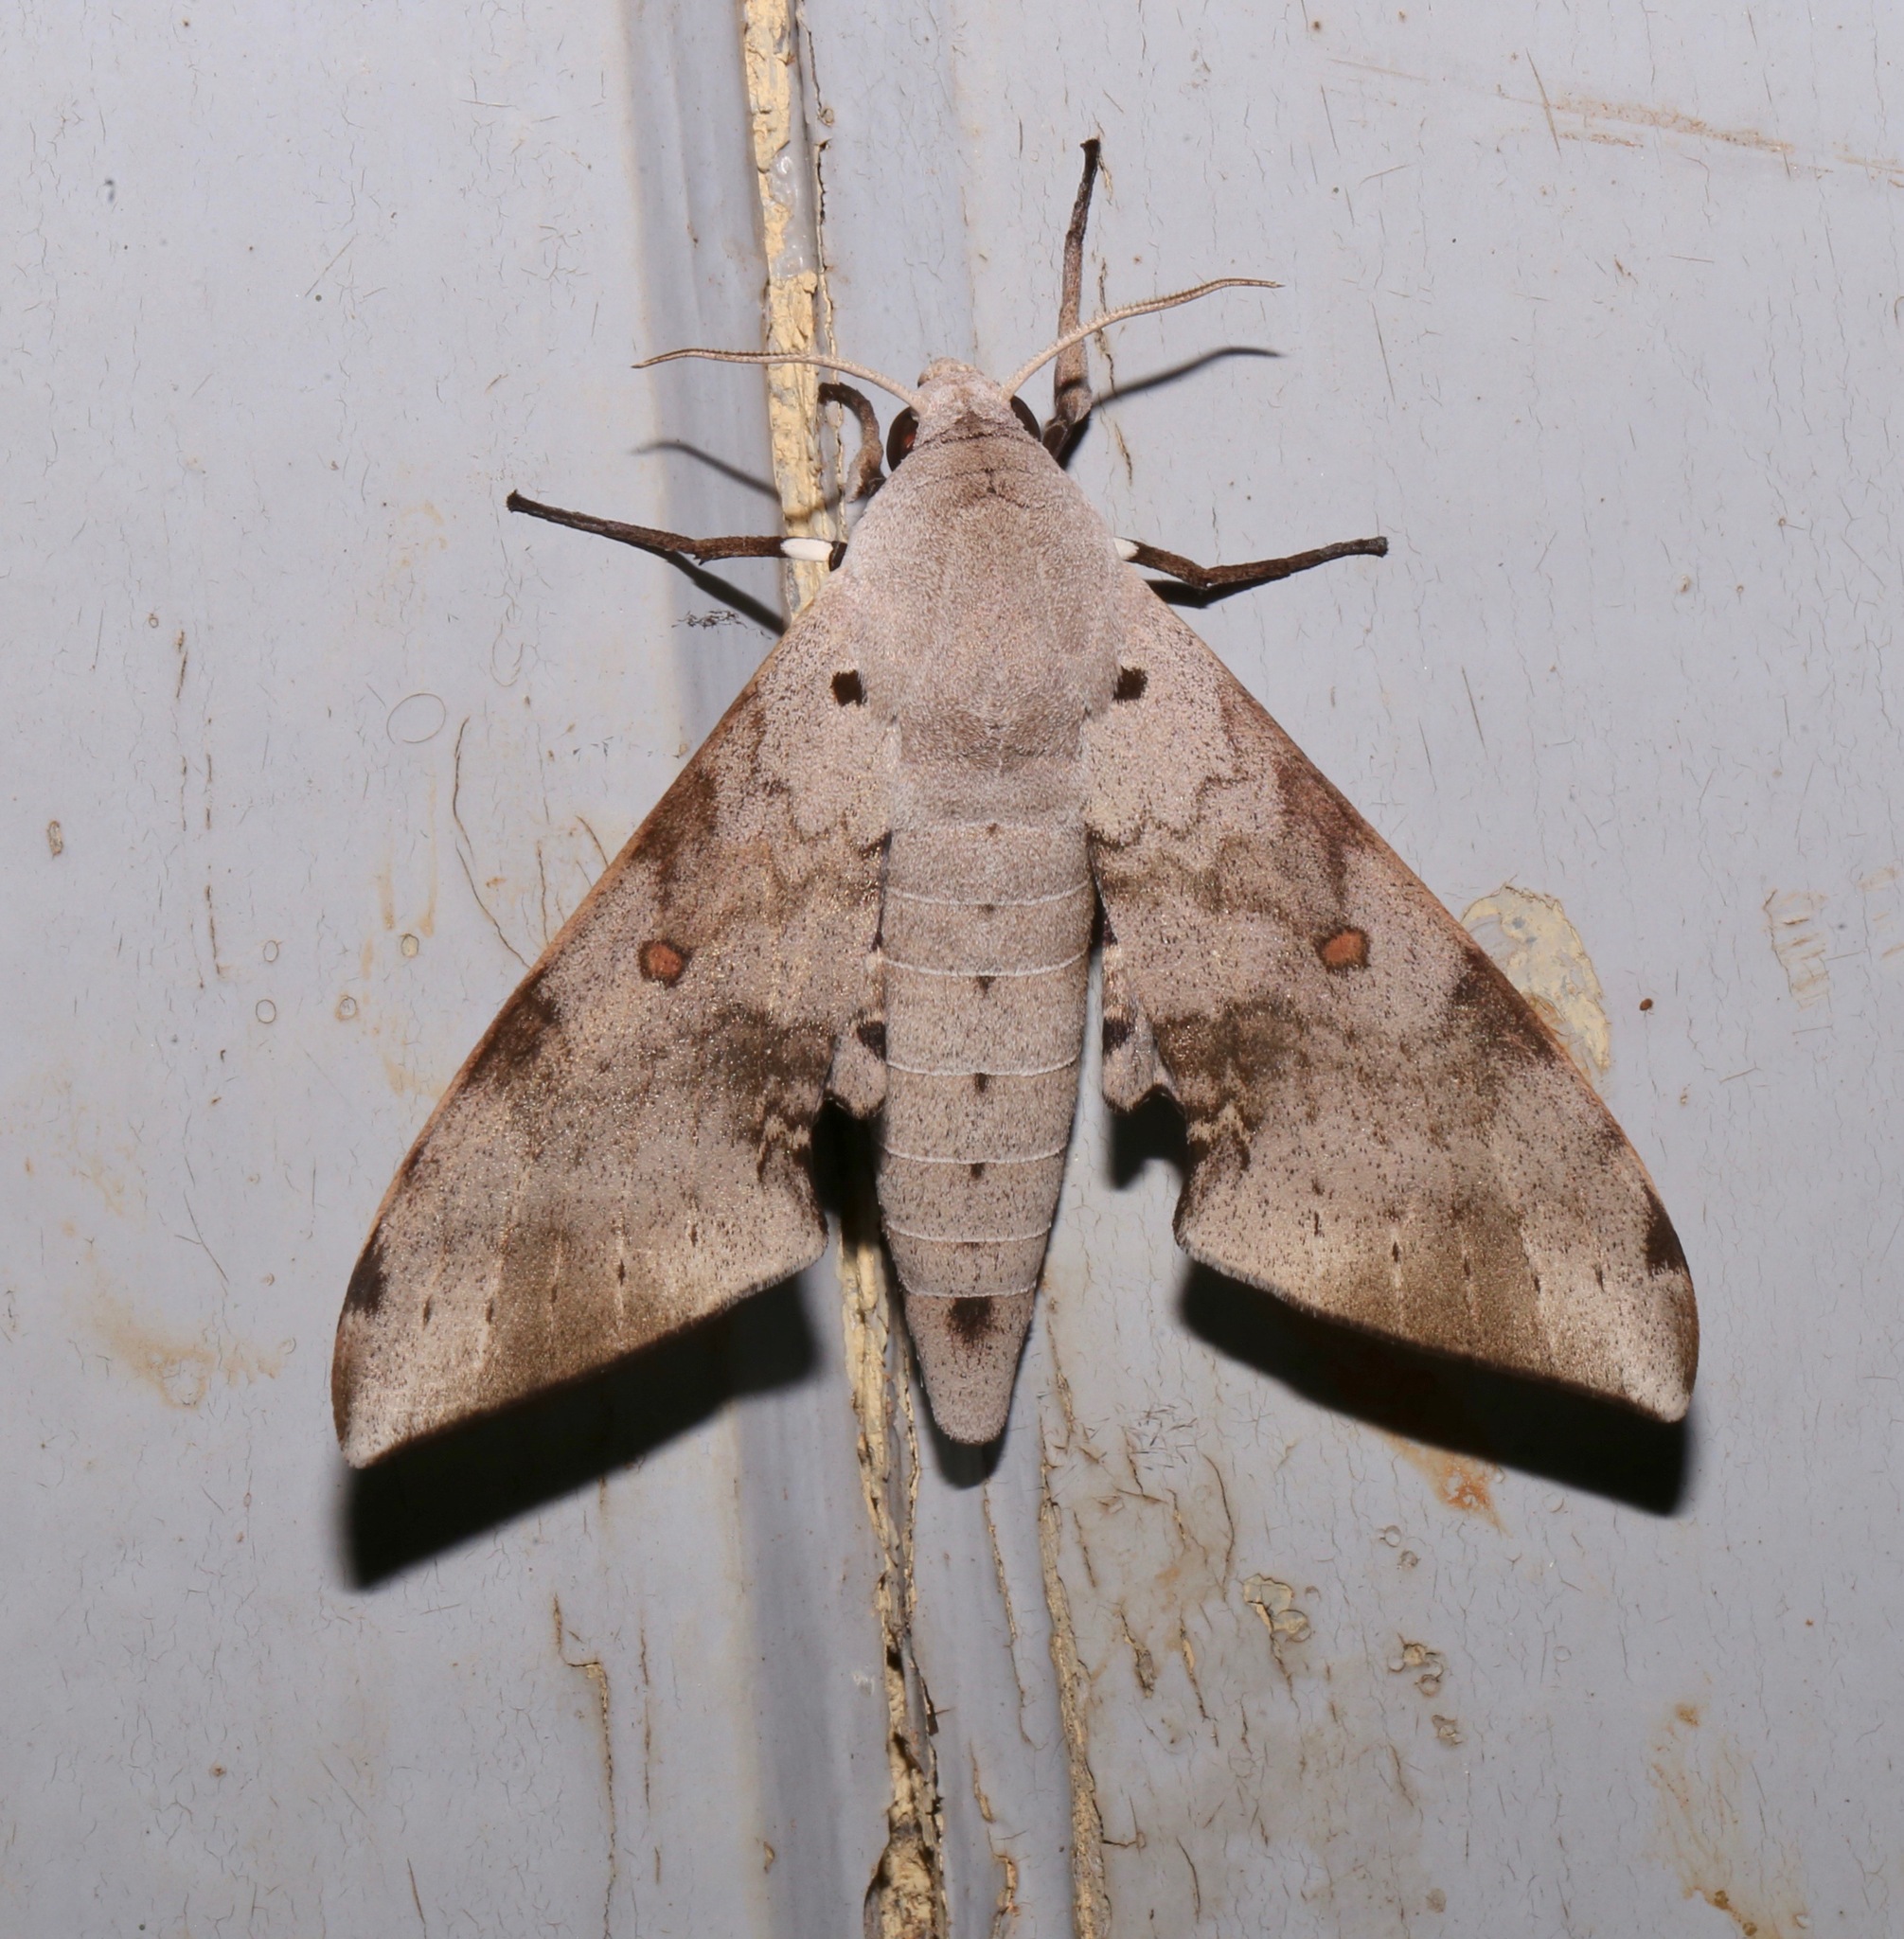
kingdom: Animalia
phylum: Arthropoda
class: Insecta
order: Lepidoptera
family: Sphingidae
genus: Neopolyptychus
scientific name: Neopolyptychus compar
